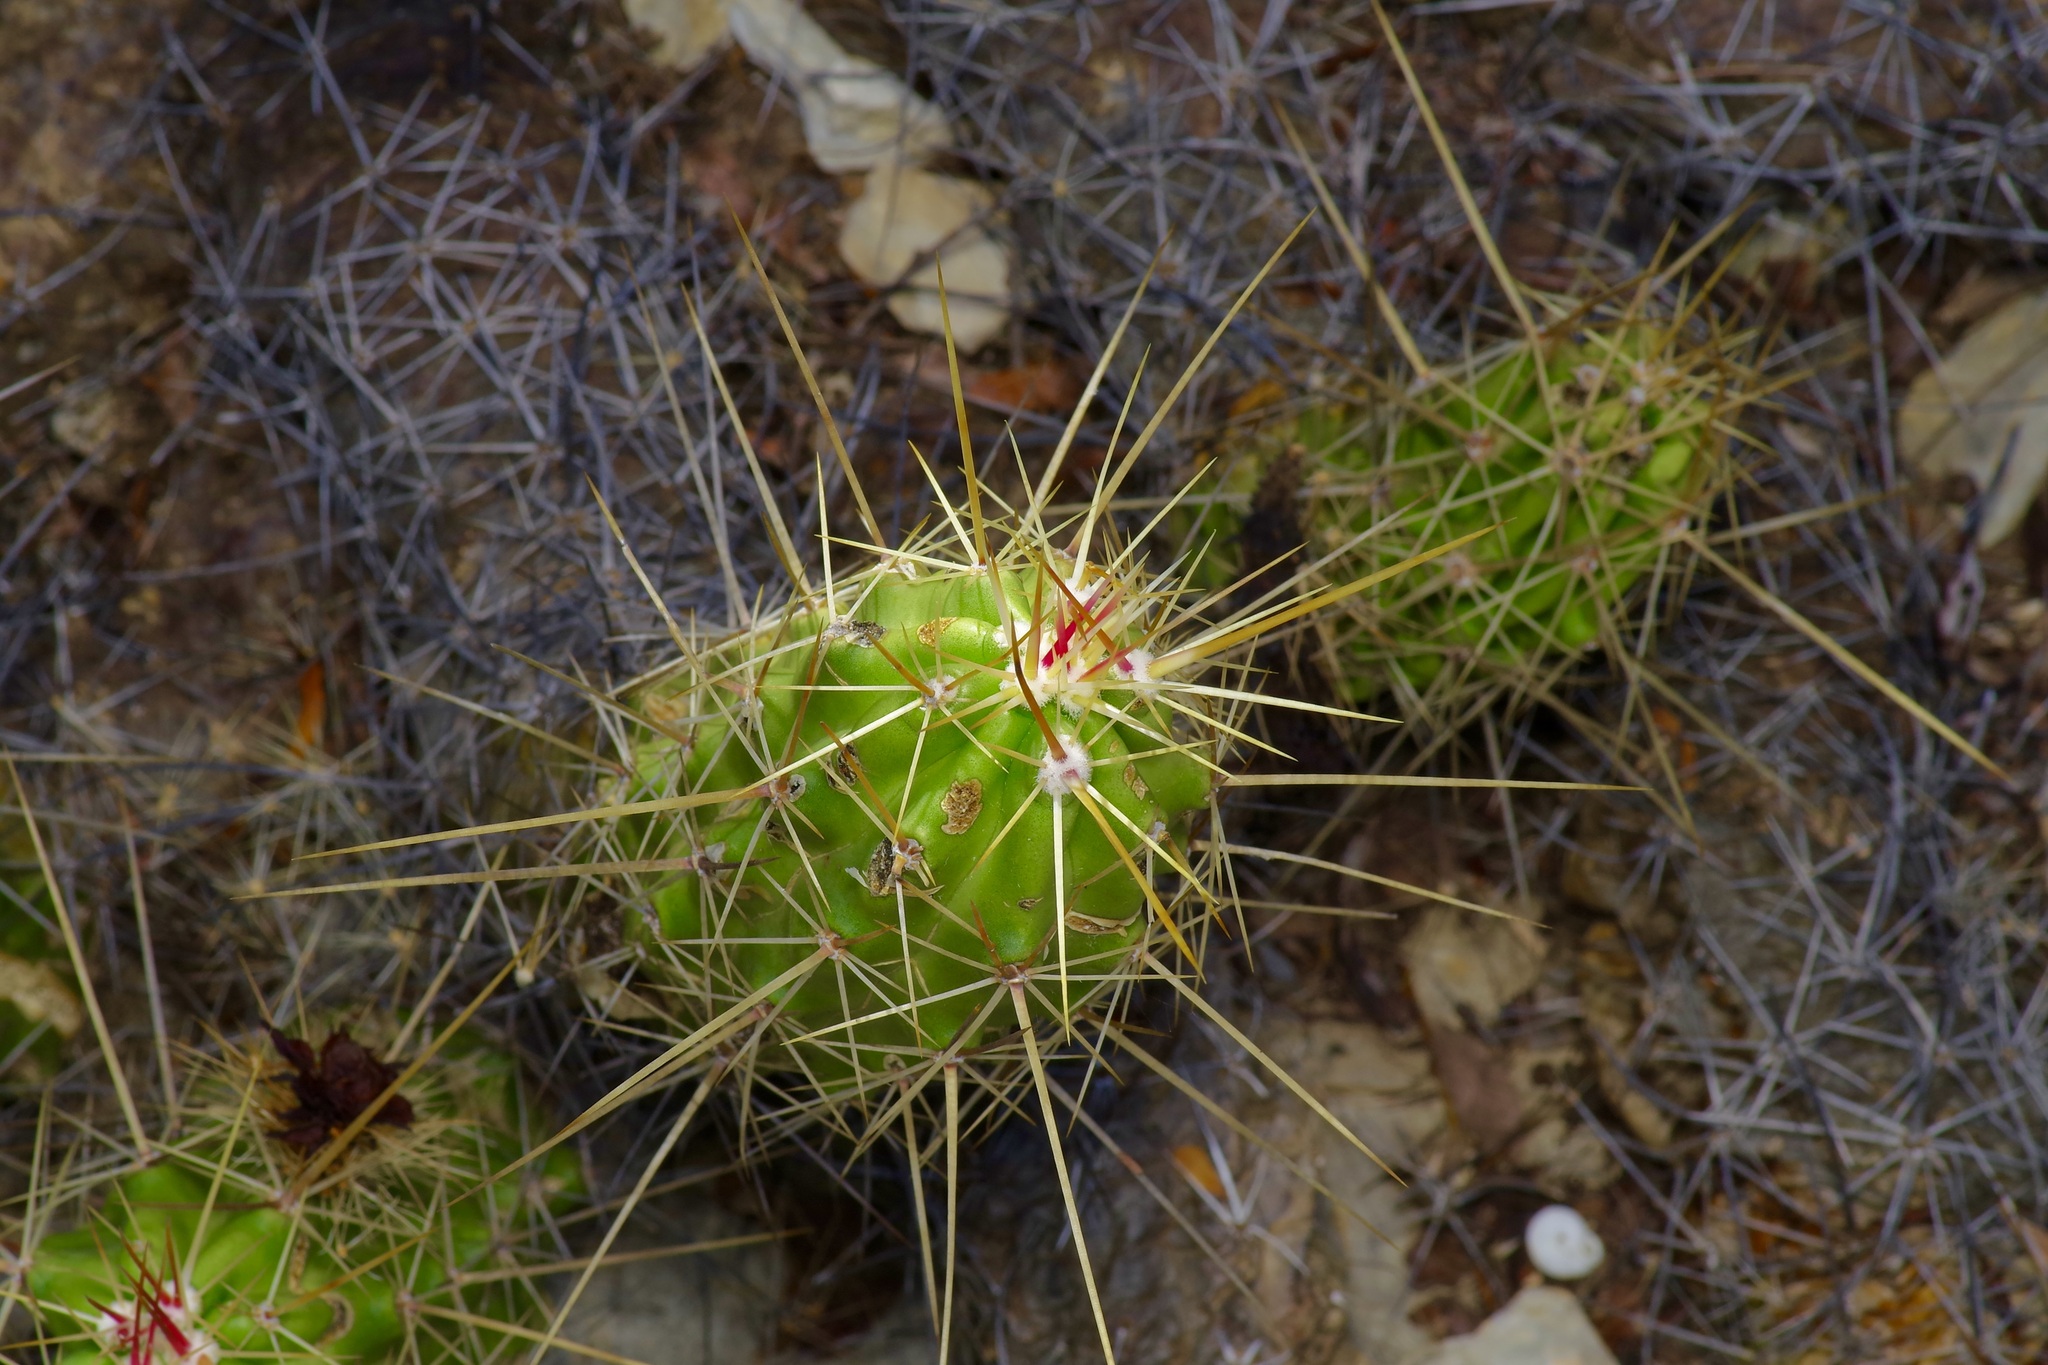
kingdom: Plantae
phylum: Tracheophyta
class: Magnoliopsida
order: Caryophyllales
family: Cactaceae
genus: Echinocereus
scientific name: Echinocereus enneacanthus
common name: Pitaya
